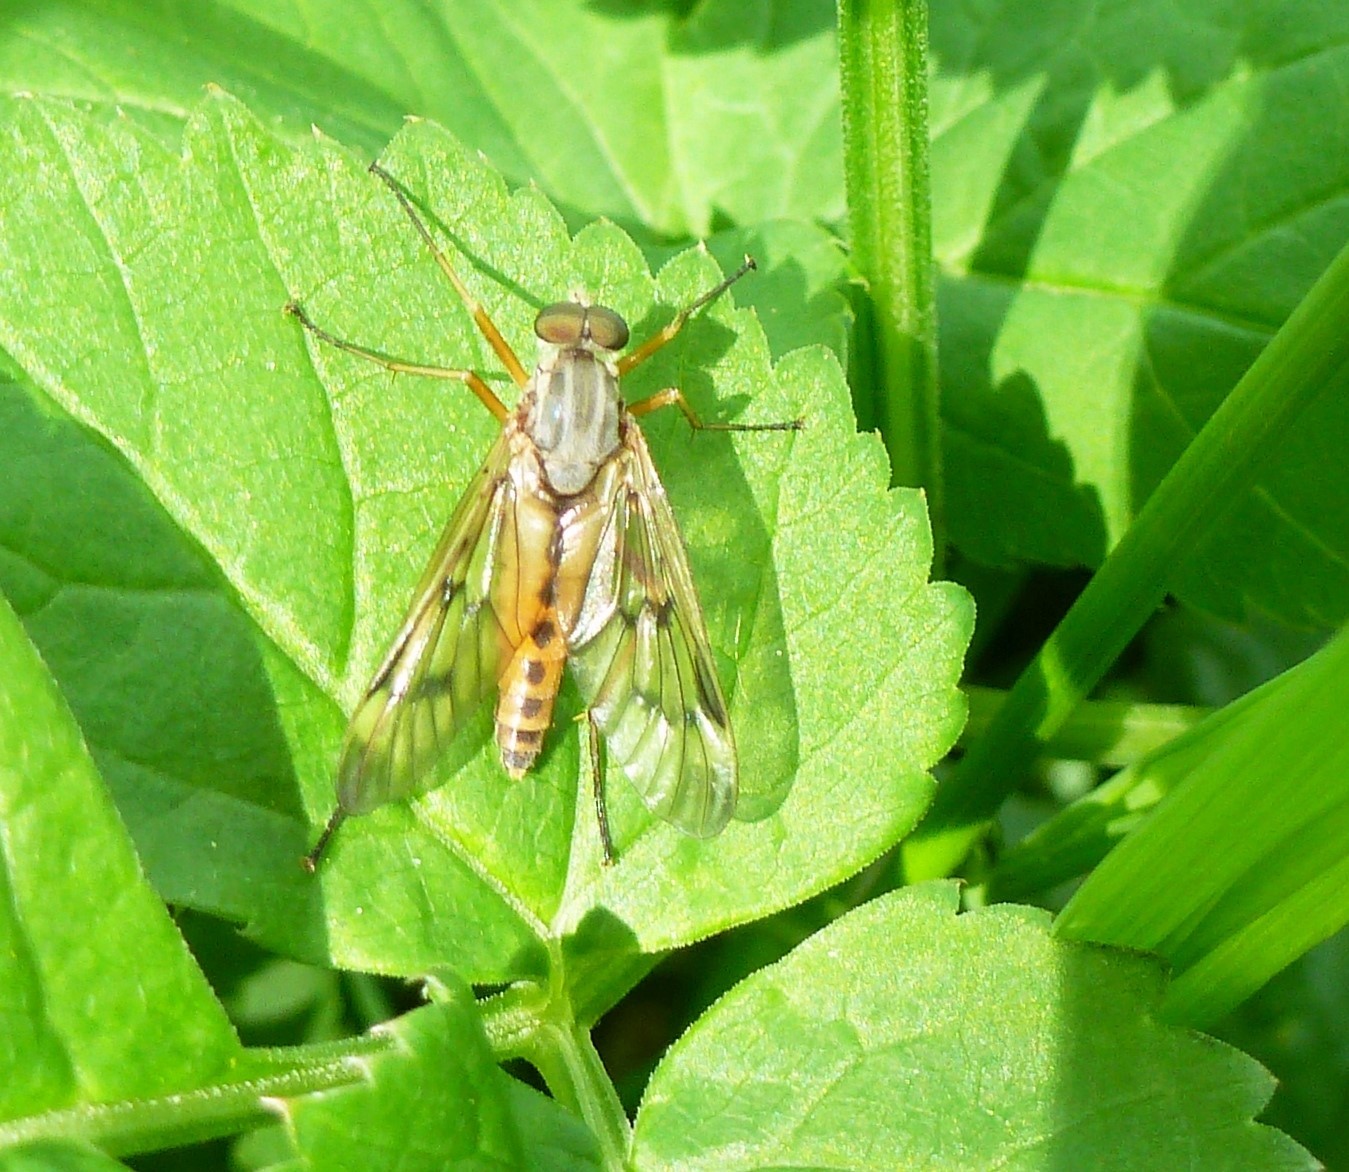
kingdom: Animalia
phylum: Arthropoda
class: Insecta
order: Diptera
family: Rhagionidae
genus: Rhagio
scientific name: Rhagio scolopacea
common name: Downlooker snipefly
